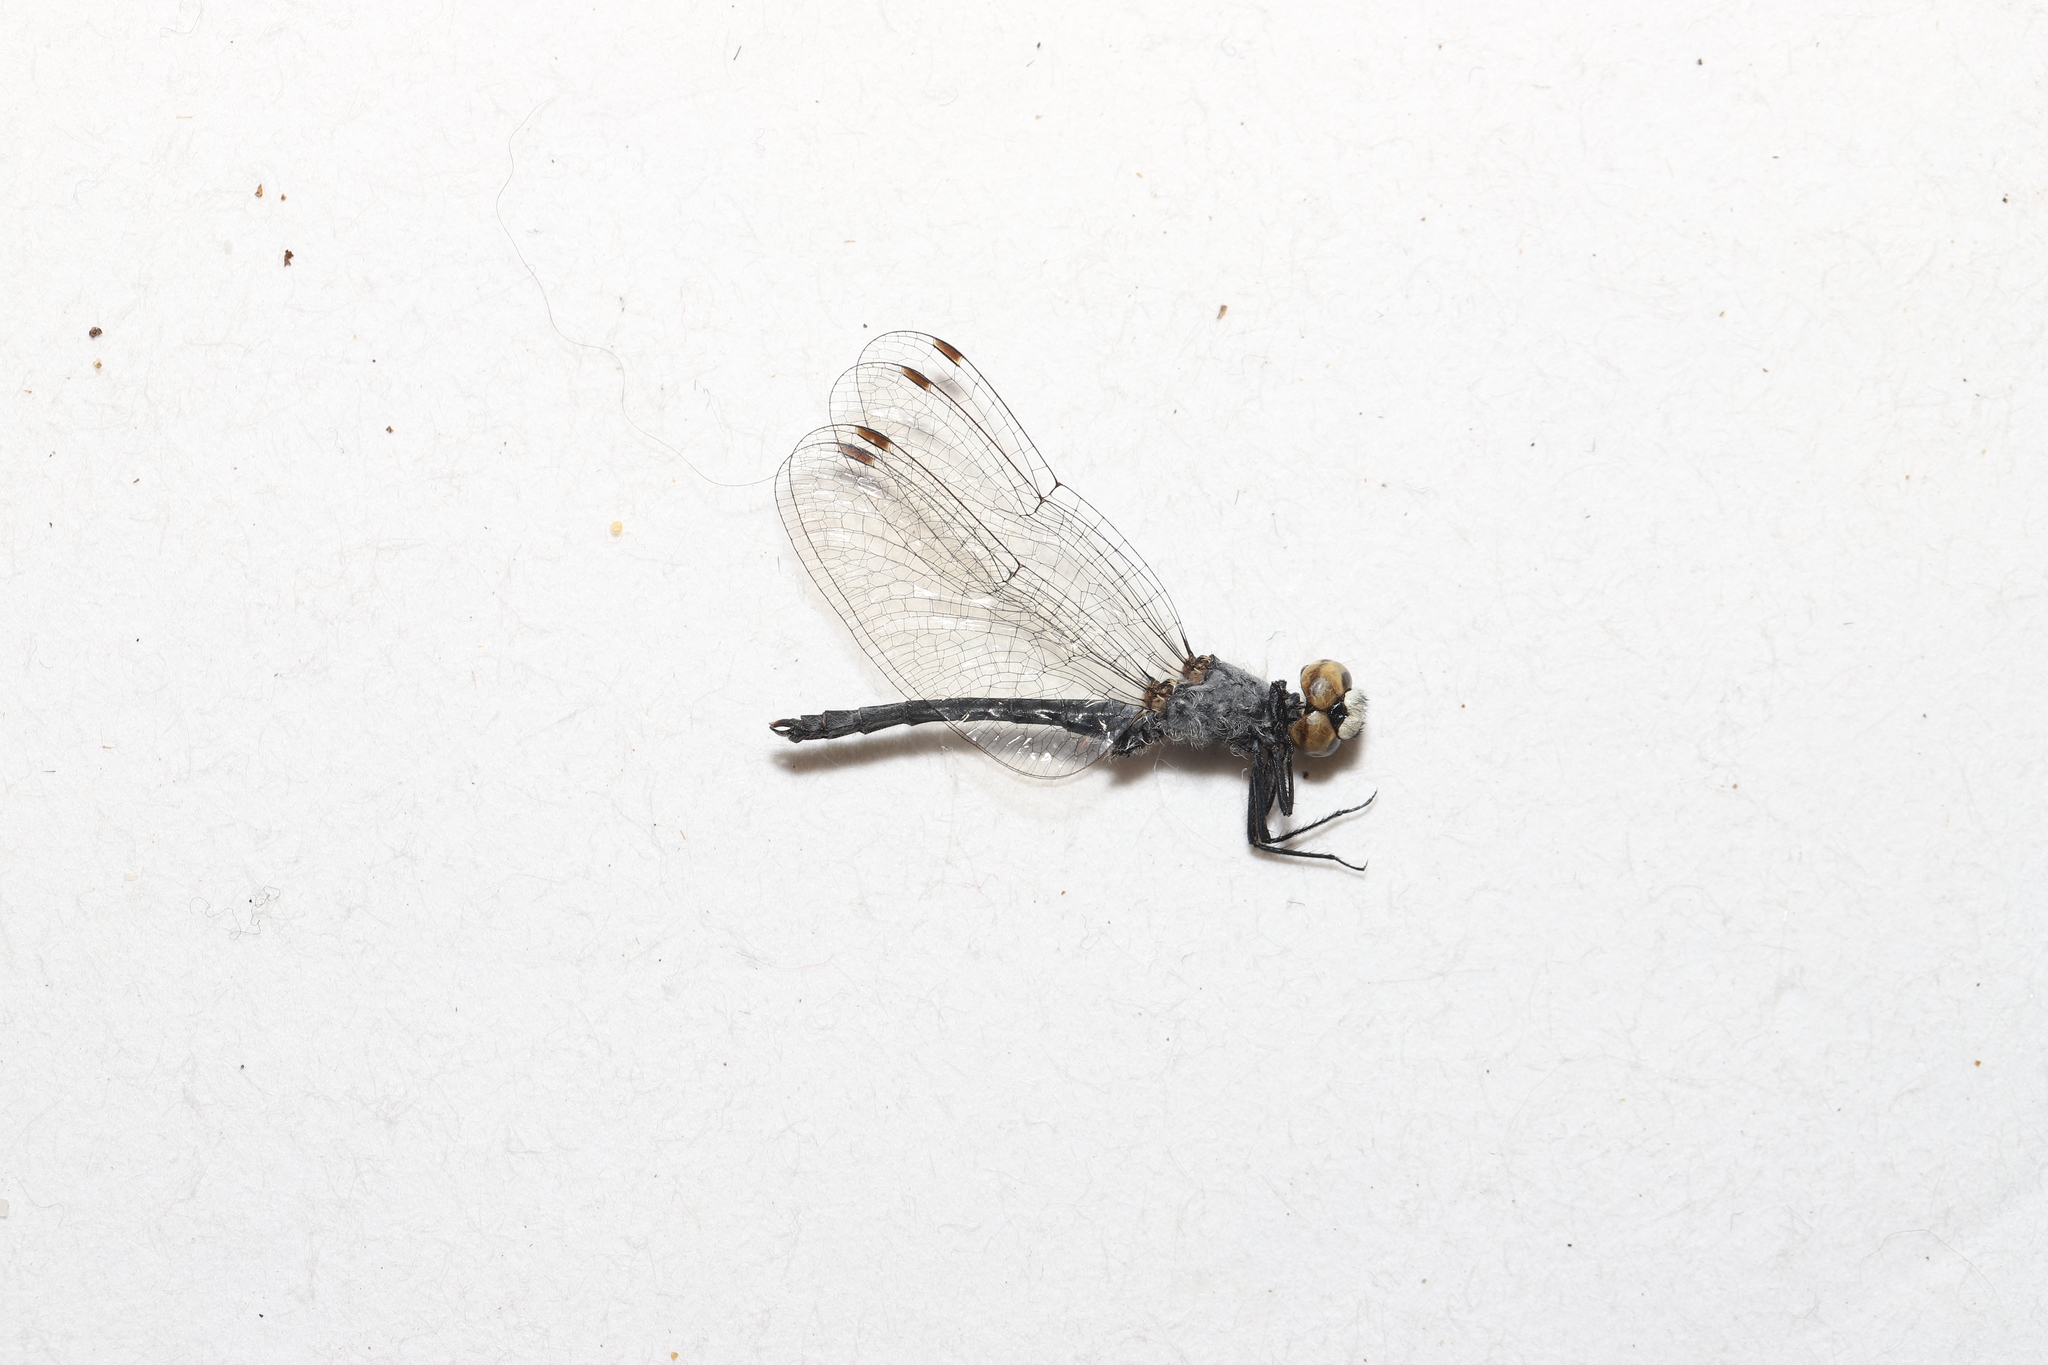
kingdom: Animalia
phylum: Arthropoda
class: Insecta
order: Odonata
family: Libellulidae
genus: Nannothemis
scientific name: Nannothemis bella
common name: Elfin skimmer
